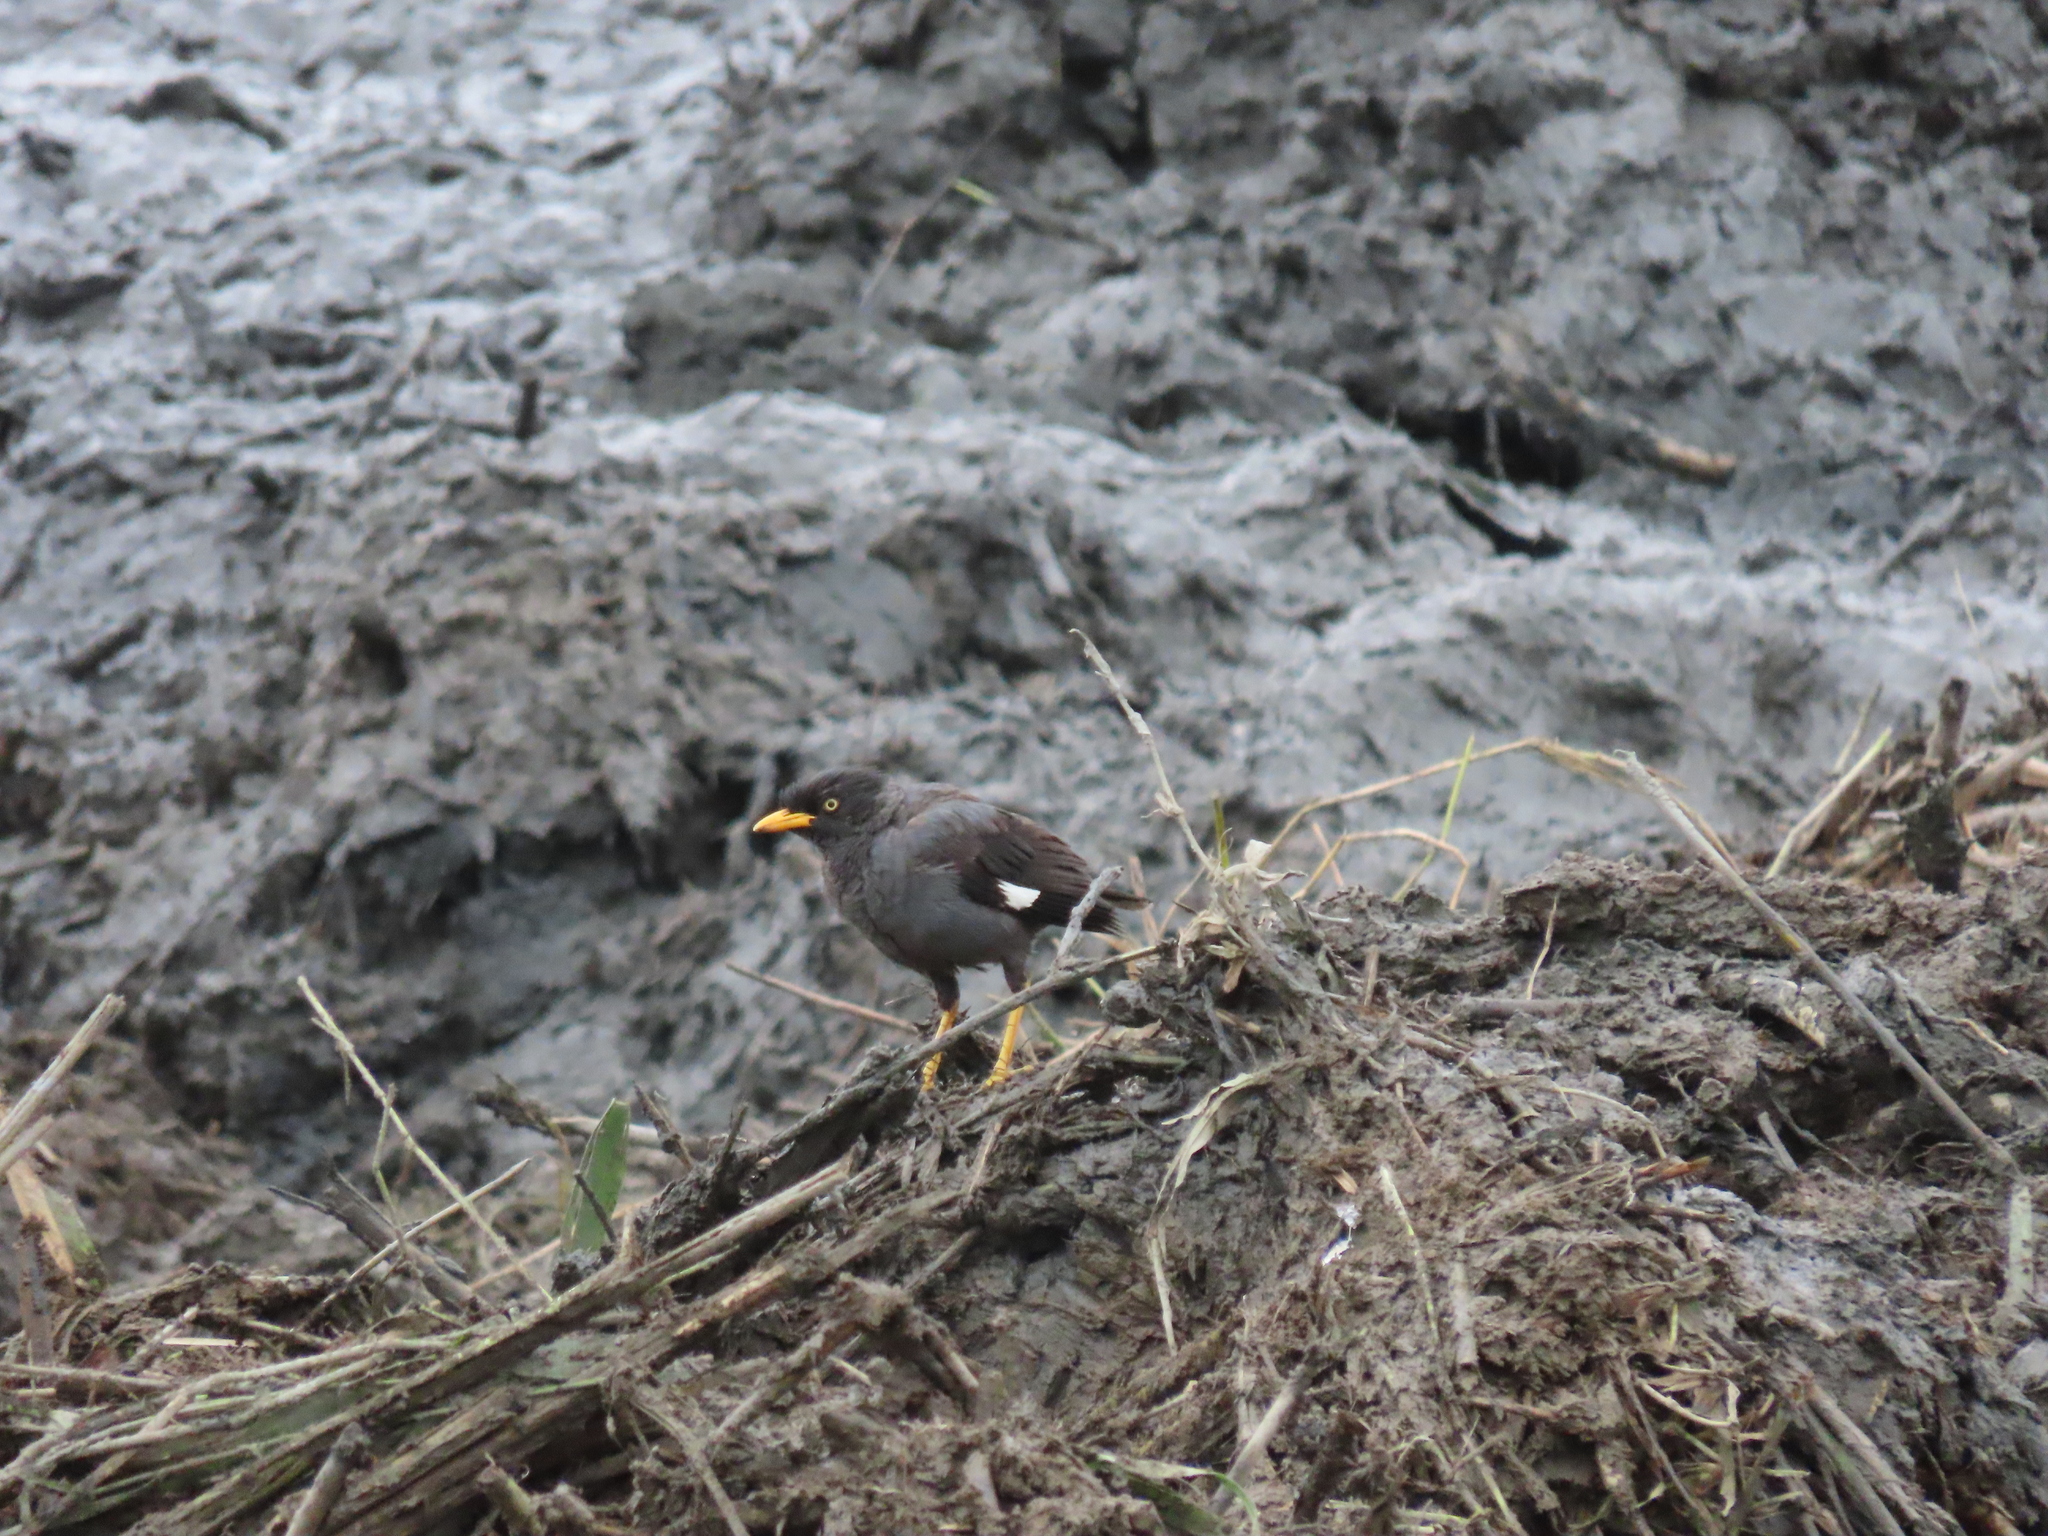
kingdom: Animalia
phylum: Chordata
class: Aves
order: Passeriformes
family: Sturnidae
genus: Acridotheres
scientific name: Acridotheres javanicus
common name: Javan myna
